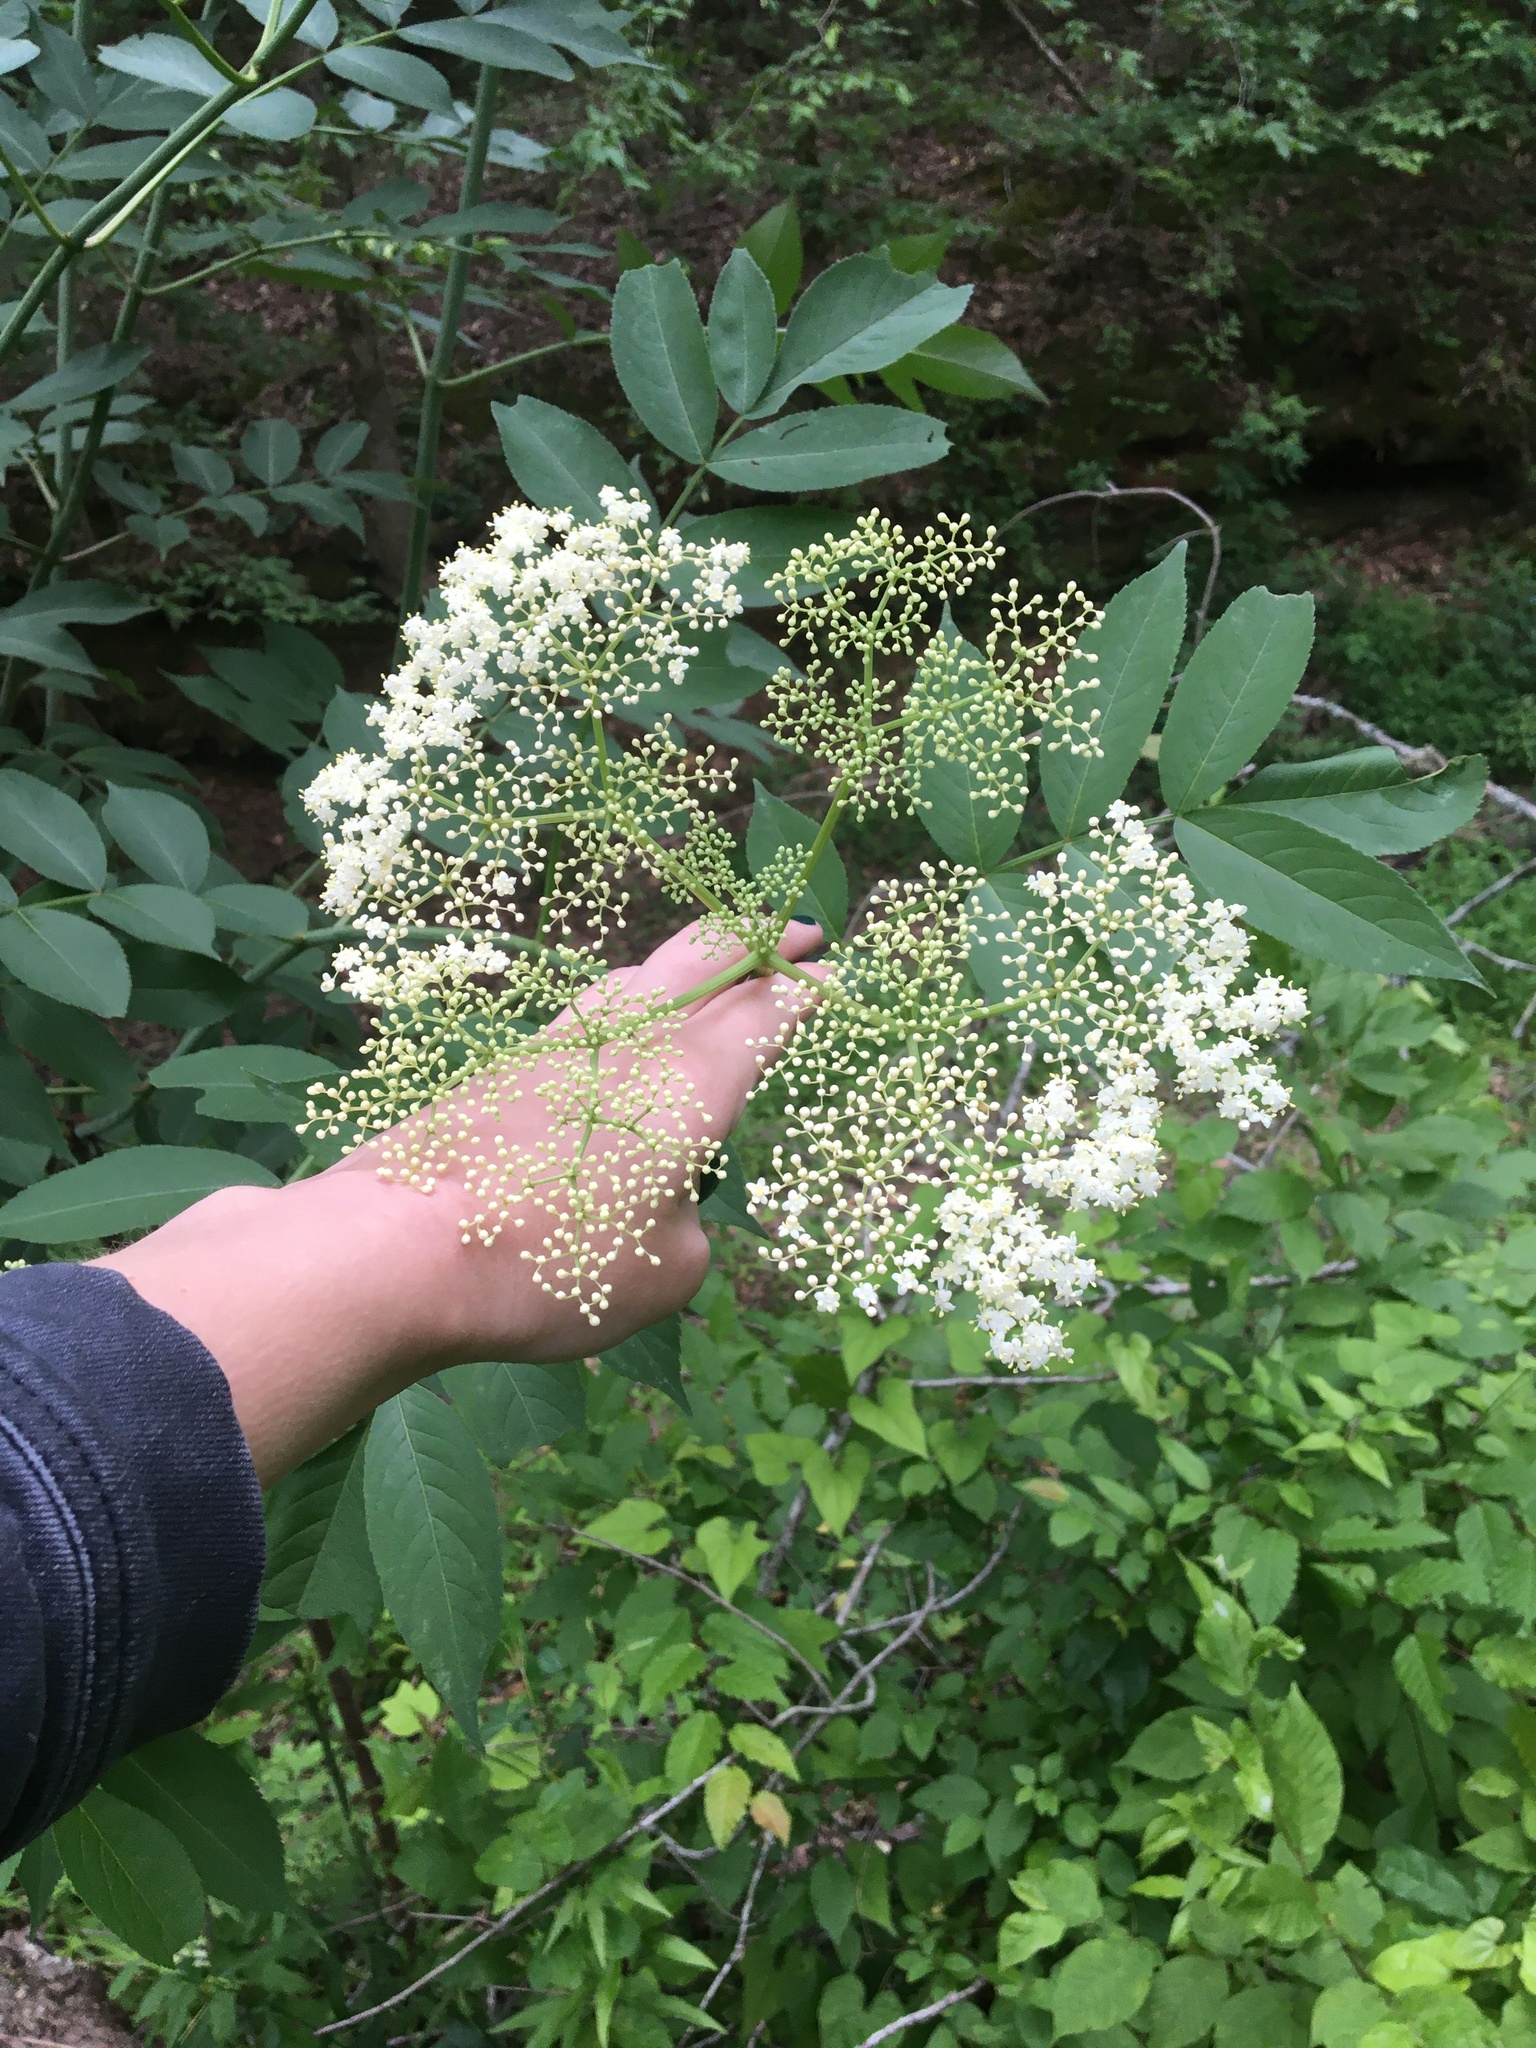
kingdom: Plantae
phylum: Tracheophyta
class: Magnoliopsida
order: Dipsacales
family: Viburnaceae
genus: Sambucus
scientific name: Sambucus canadensis
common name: American elder
